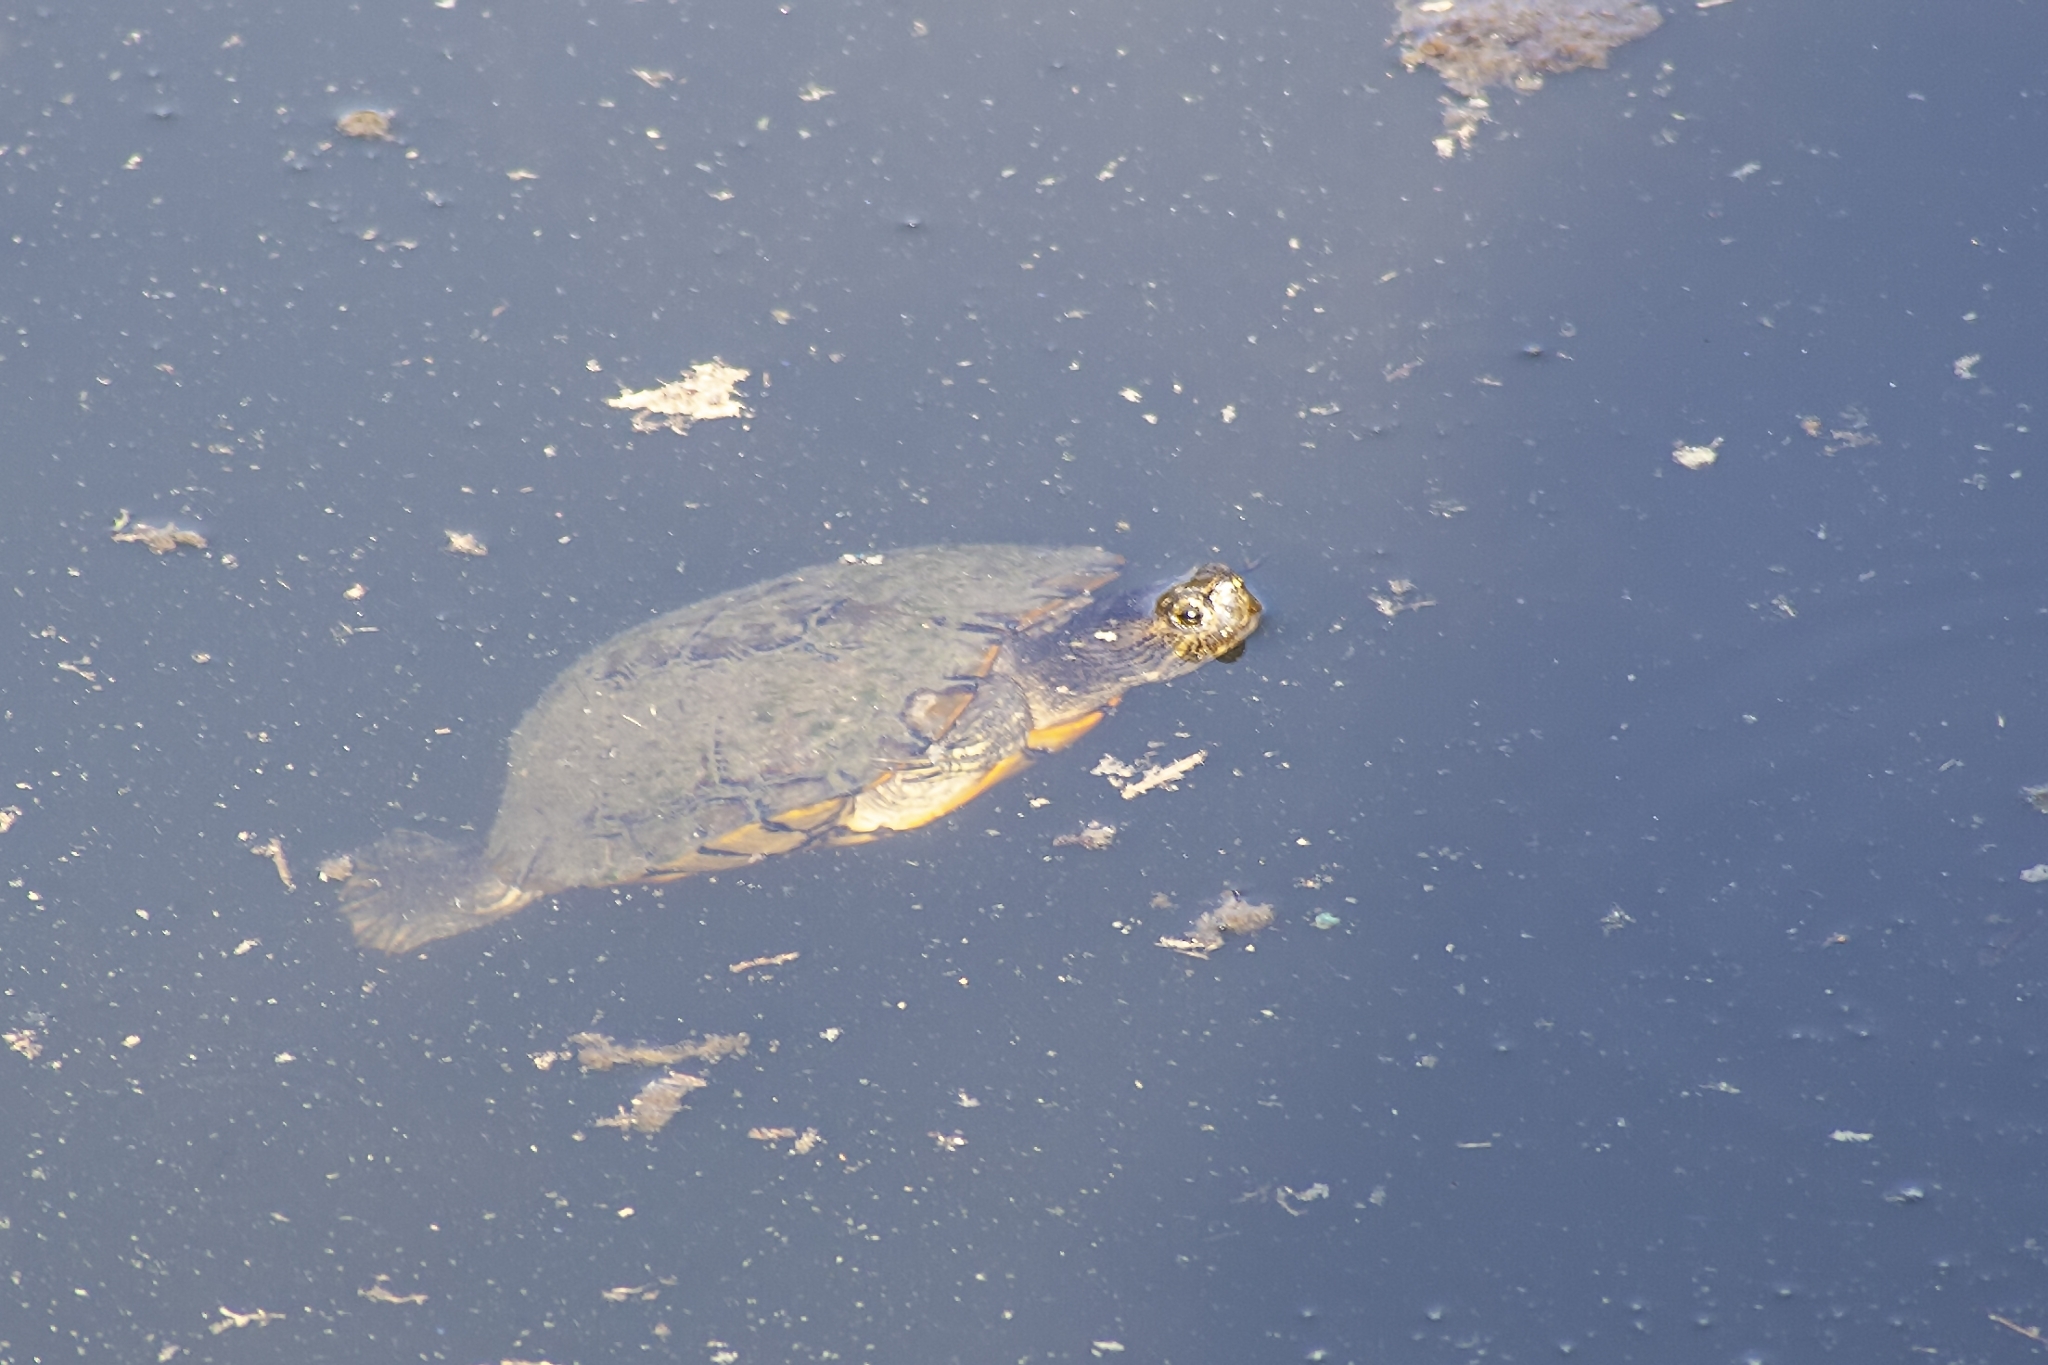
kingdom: Animalia
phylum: Chordata
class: Testudines
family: Emydidae
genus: Trachemys
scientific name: Trachemys scripta
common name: Slider
